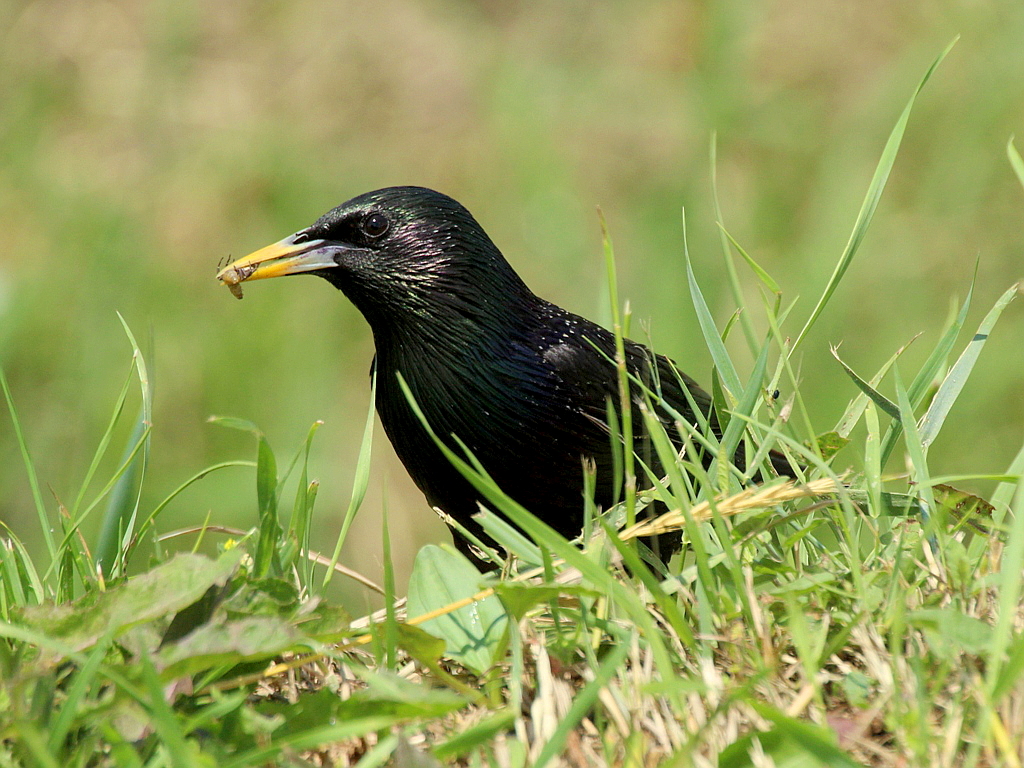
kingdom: Animalia
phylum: Chordata
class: Aves
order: Passeriformes
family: Sturnidae
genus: Sturnus
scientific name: Sturnus vulgaris
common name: Common starling
